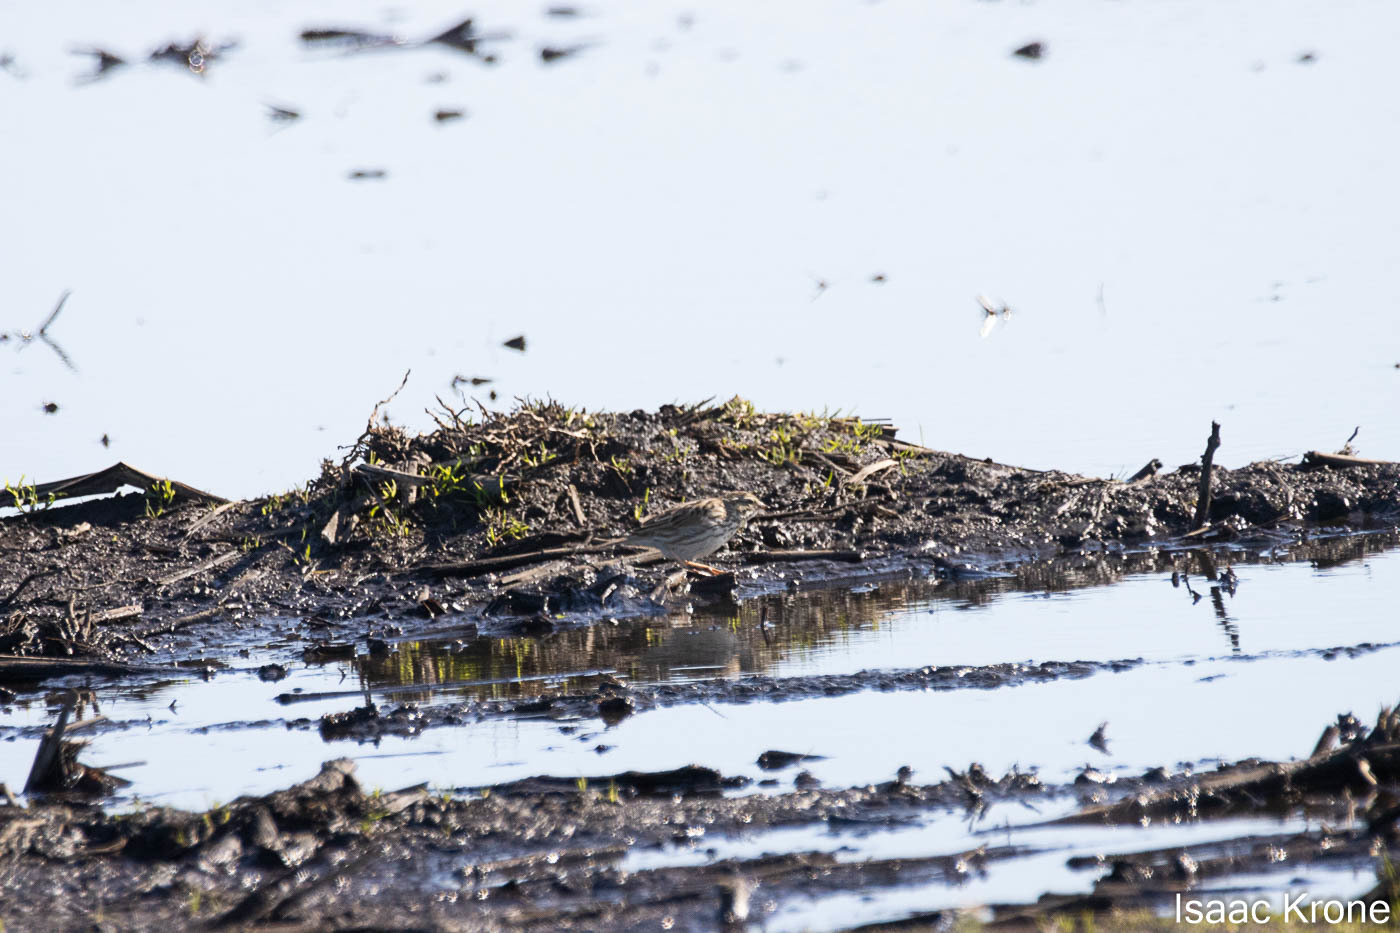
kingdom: Animalia
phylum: Chordata
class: Aves
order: Passeriformes
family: Passerellidae
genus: Passerculus
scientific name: Passerculus sandwichensis
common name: Savannah sparrow
